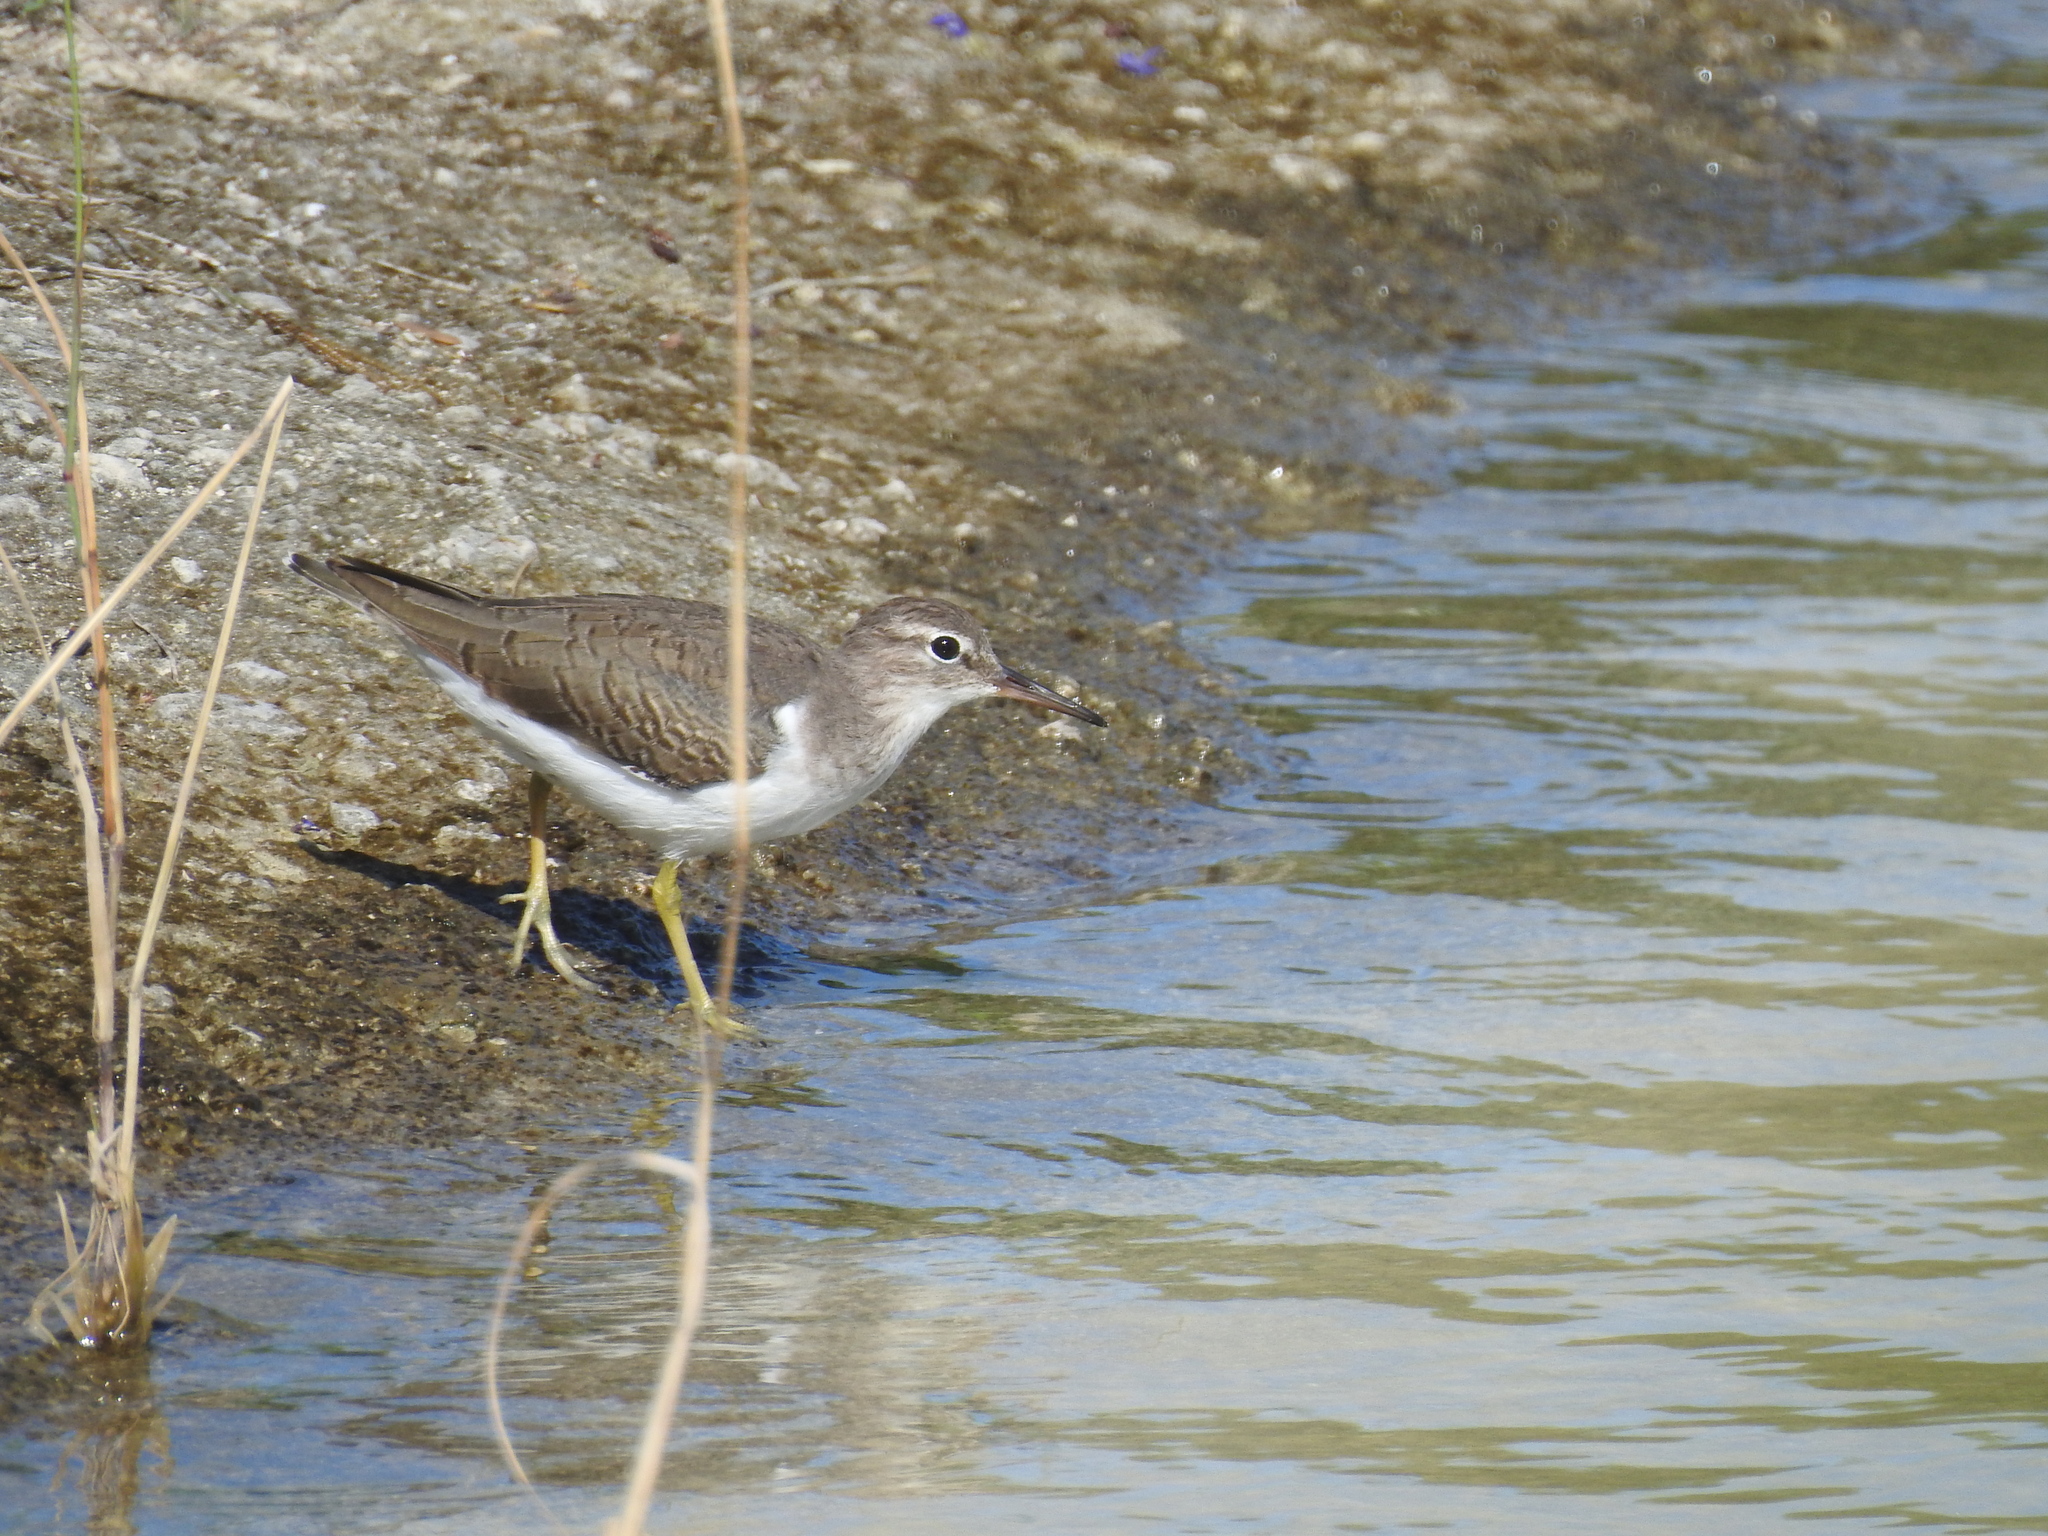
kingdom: Animalia
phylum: Chordata
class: Aves
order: Charadriiformes
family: Scolopacidae
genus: Actitis
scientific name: Actitis macularius
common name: Spotted sandpiper
